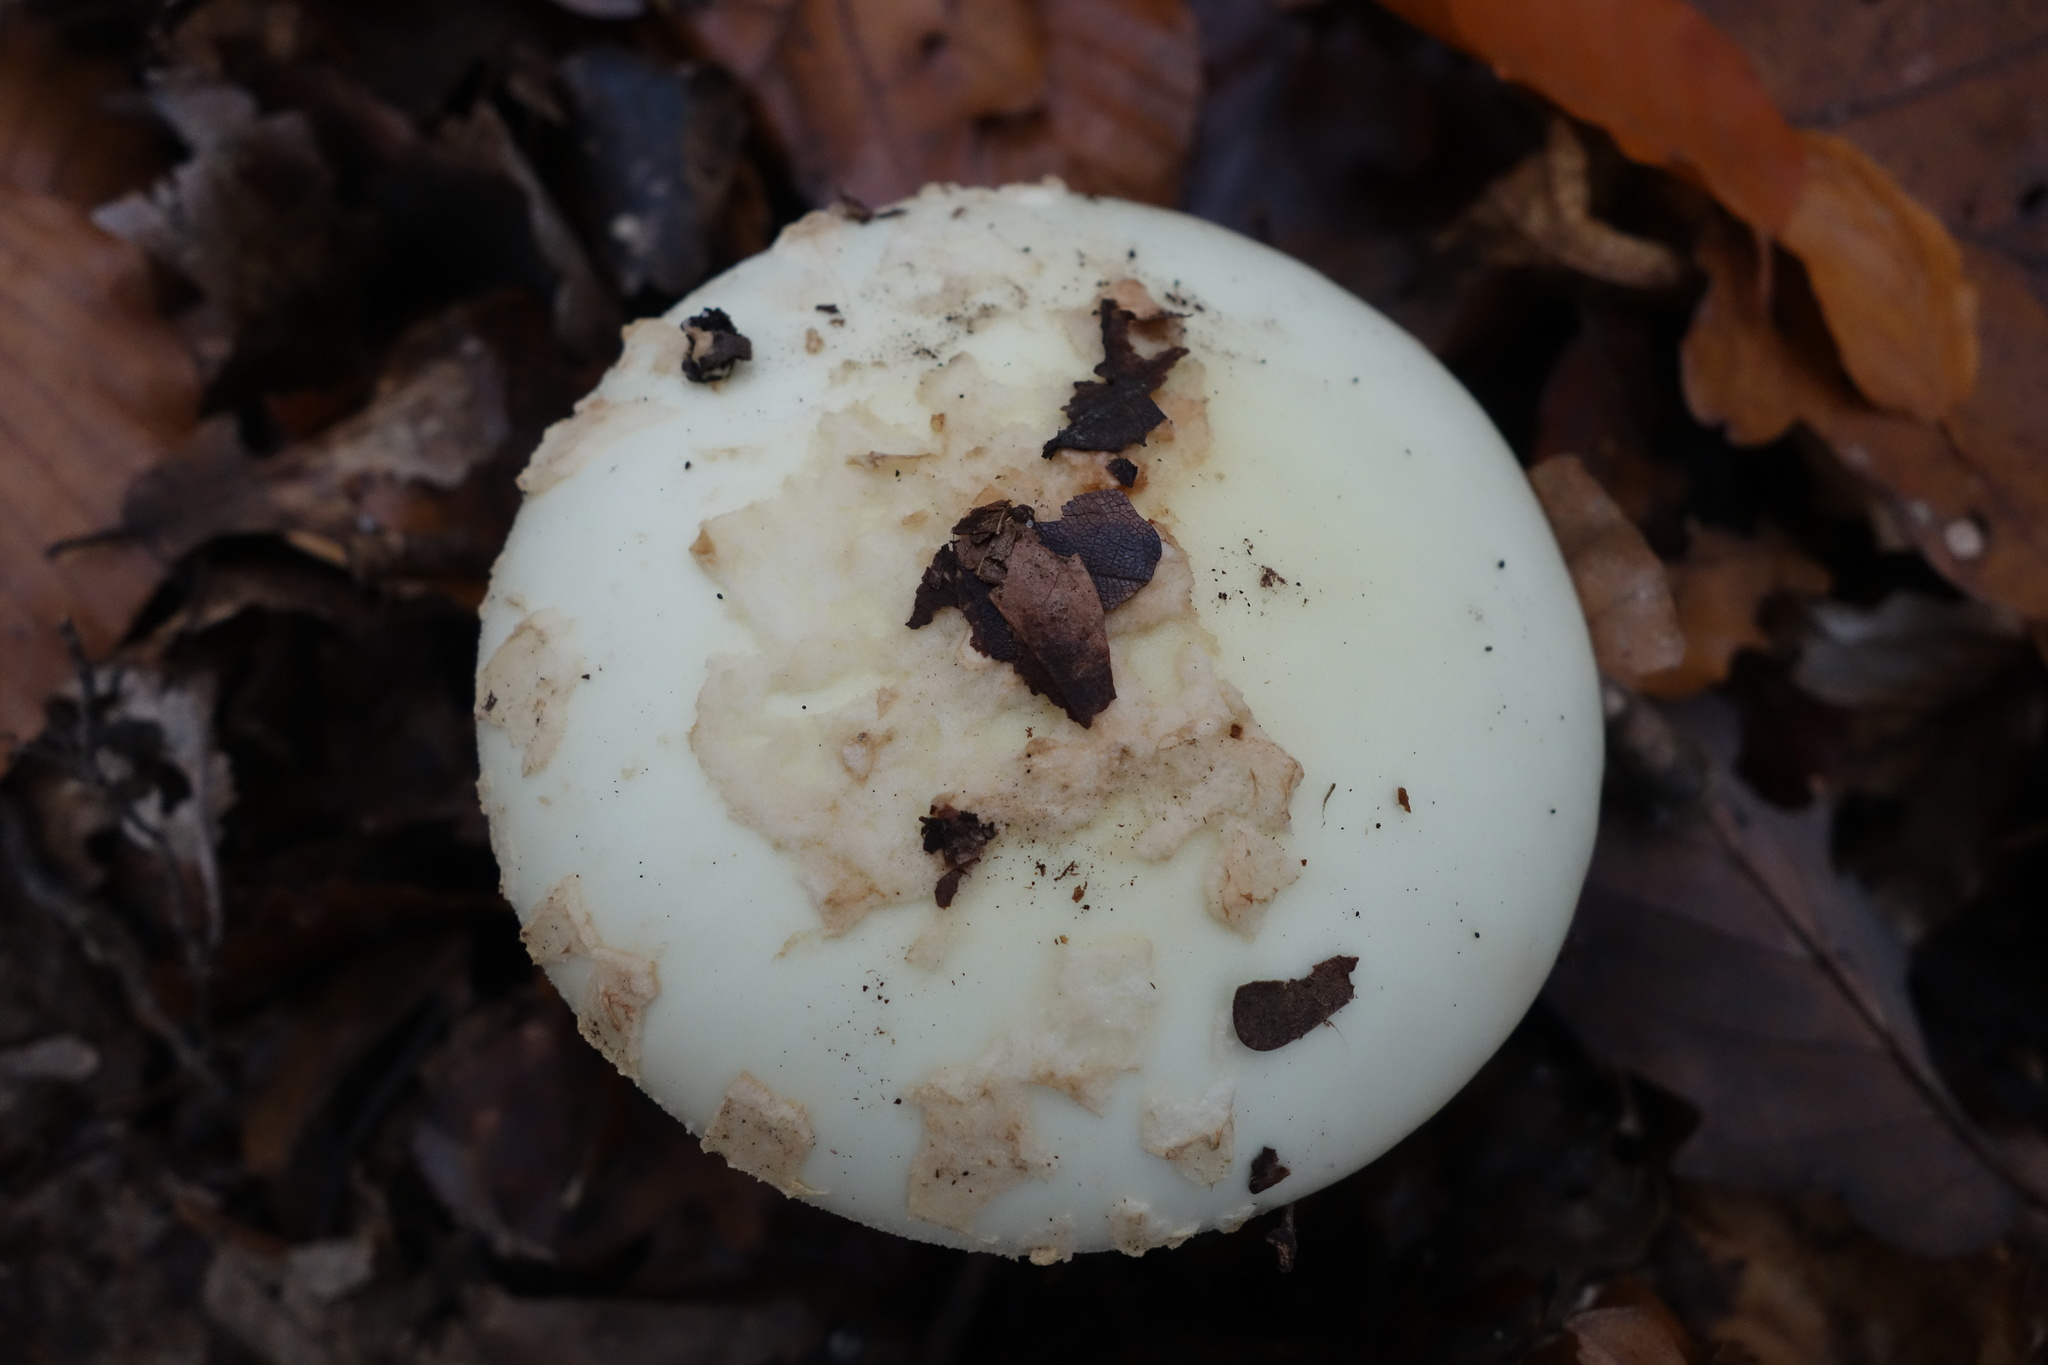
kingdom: Fungi
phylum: Basidiomycota
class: Agaricomycetes
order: Agaricales
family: Amanitaceae
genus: Amanita
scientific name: Amanita citrina
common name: False death-cap
